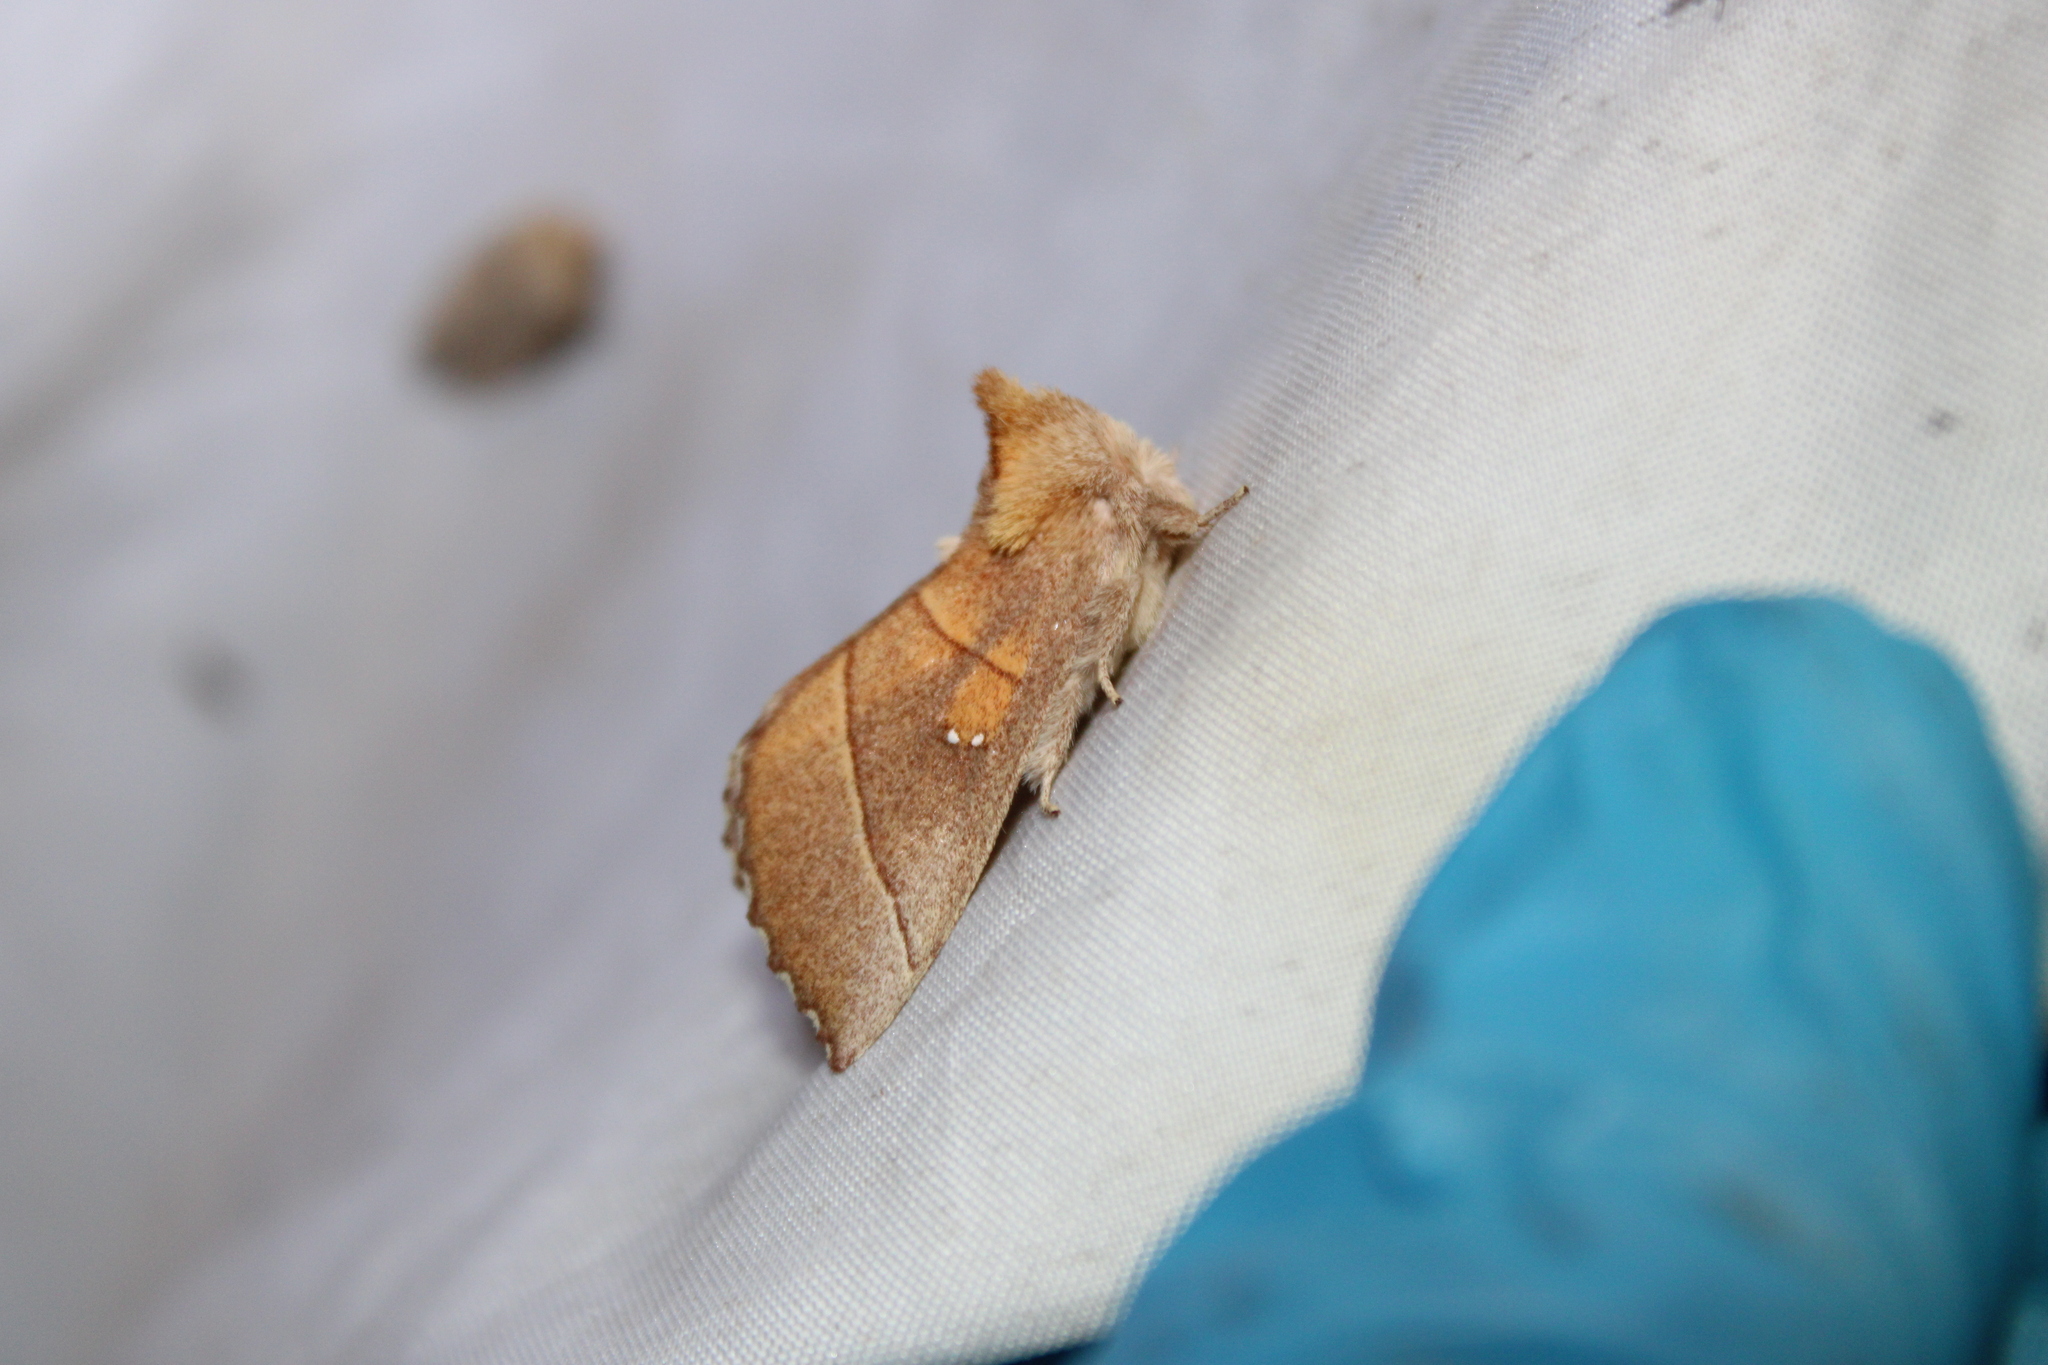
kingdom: Animalia
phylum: Arthropoda
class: Insecta
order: Lepidoptera
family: Notodontidae
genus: Nadata
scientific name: Nadata gibbosa
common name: White-dotted prominent
